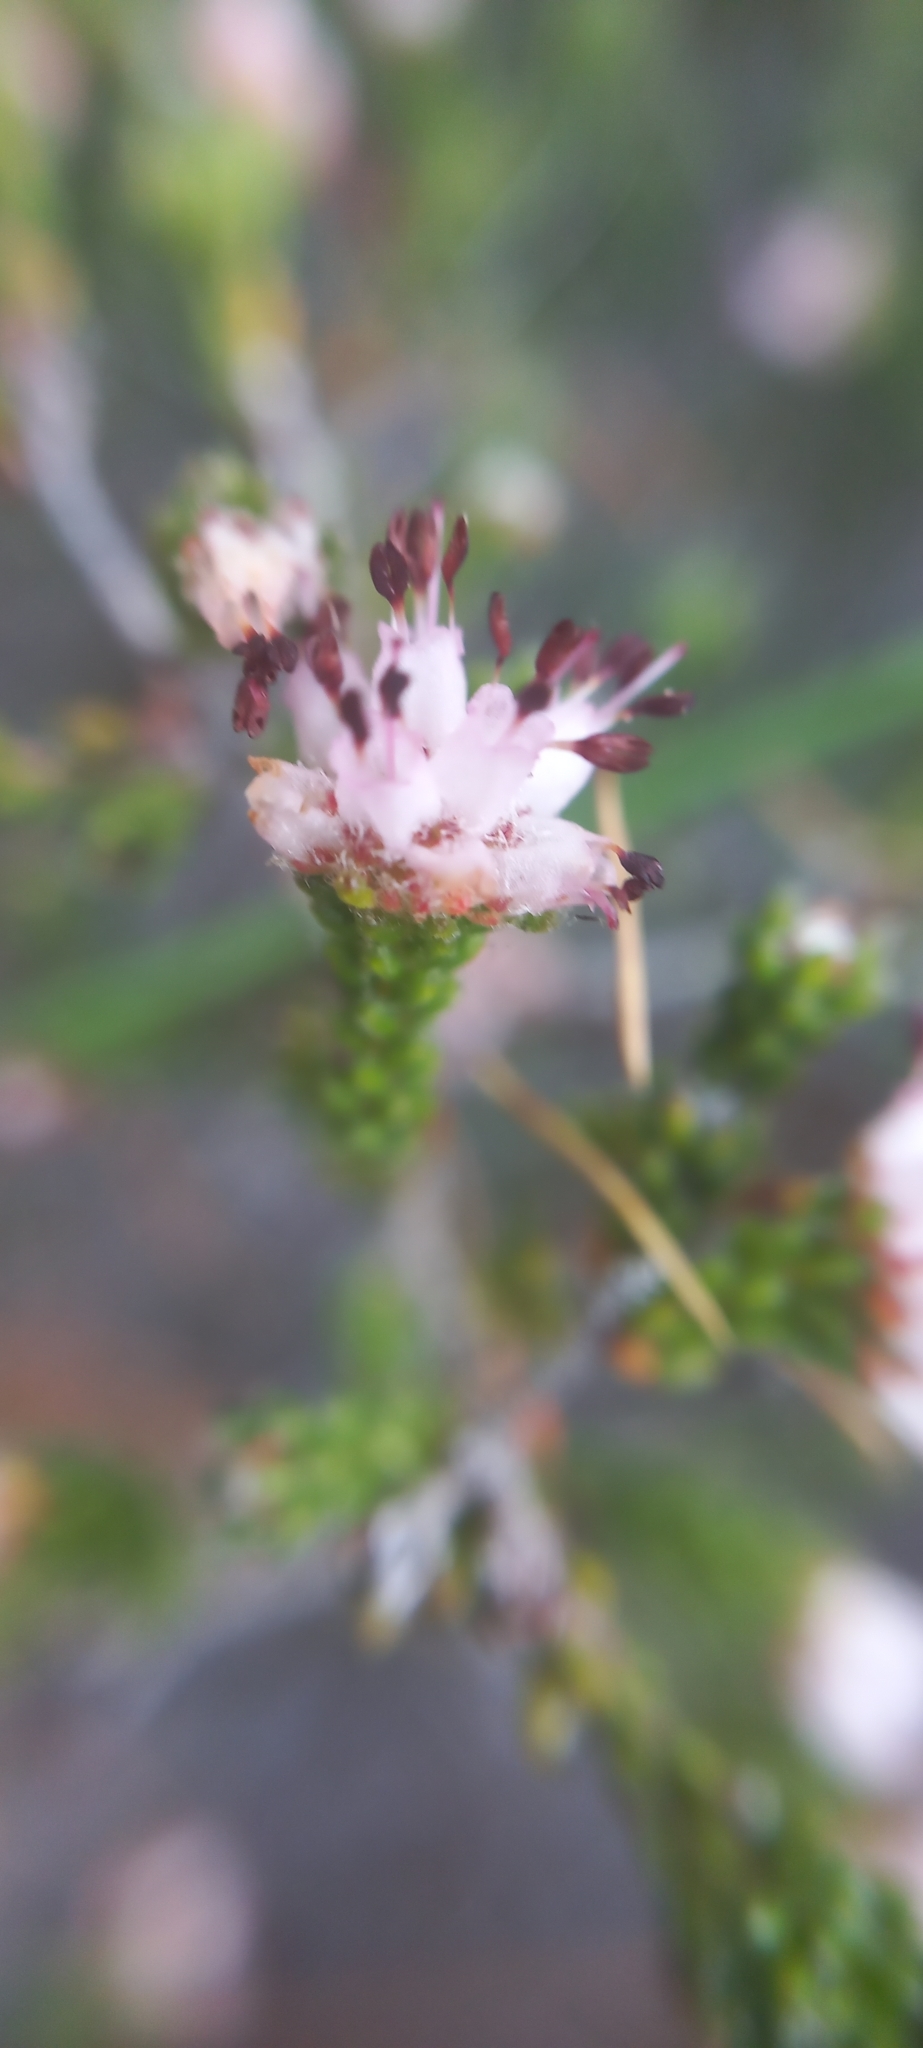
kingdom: Plantae
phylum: Tracheophyta
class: Magnoliopsida
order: Ericales
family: Ericaceae
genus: Erica
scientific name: Erica ericoides
